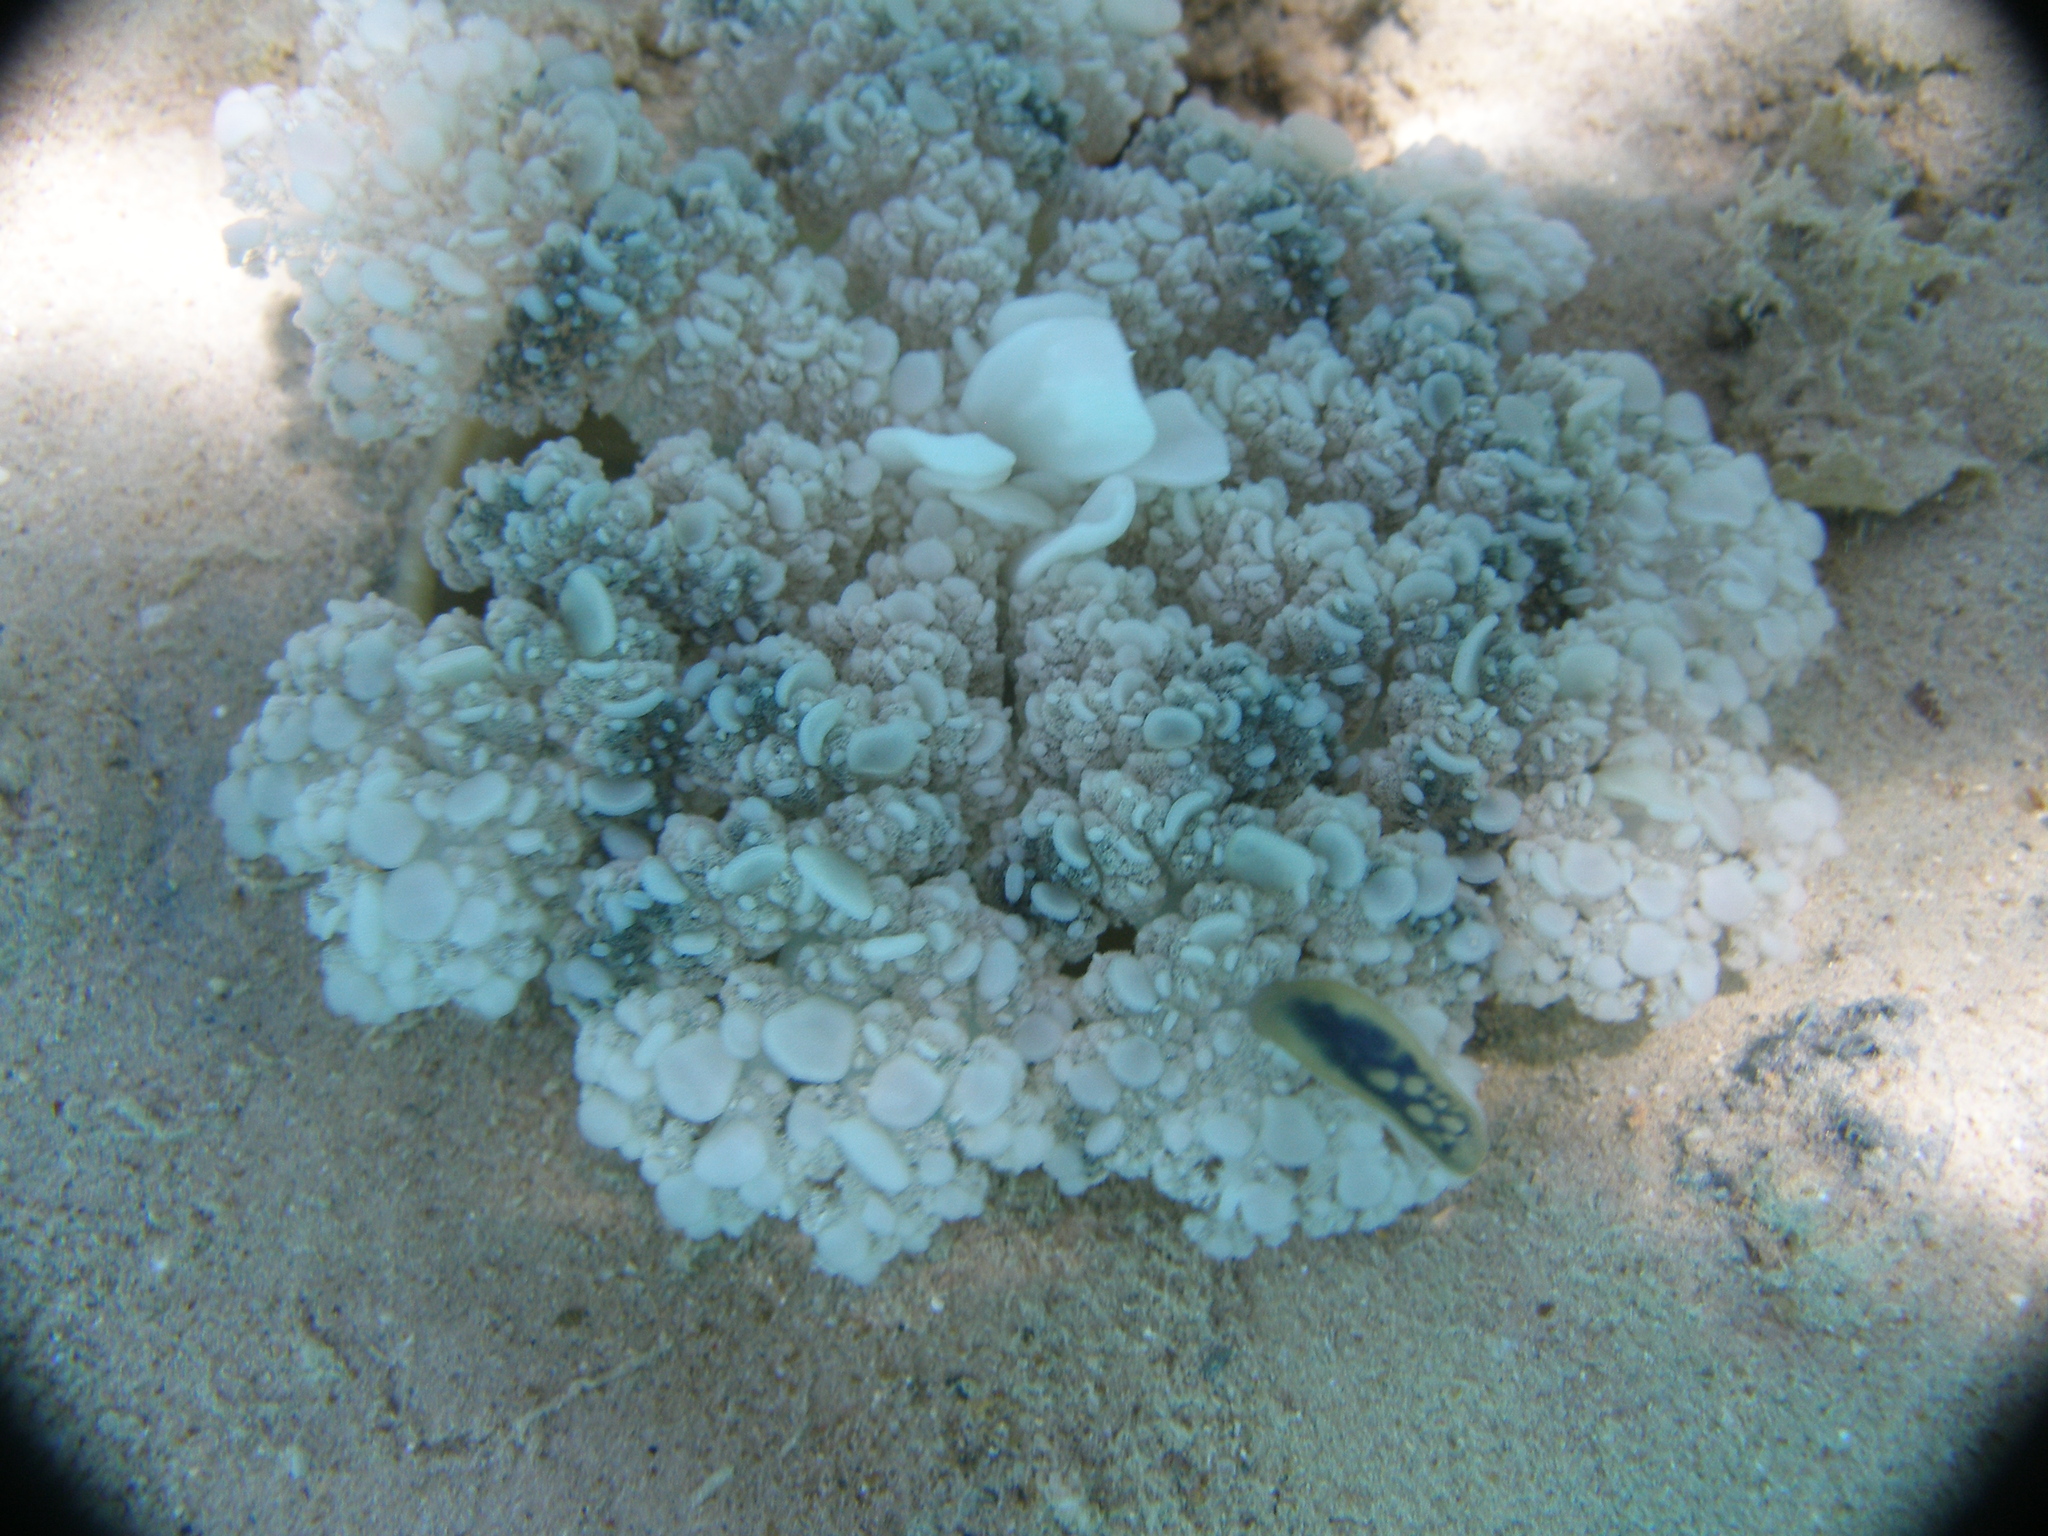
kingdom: Animalia
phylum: Cnidaria
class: Scyphozoa
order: Rhizostomeae
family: Cassiopeidae
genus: Cassiopea
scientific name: Cassiopea andromeda
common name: Upside-down jellyfish
